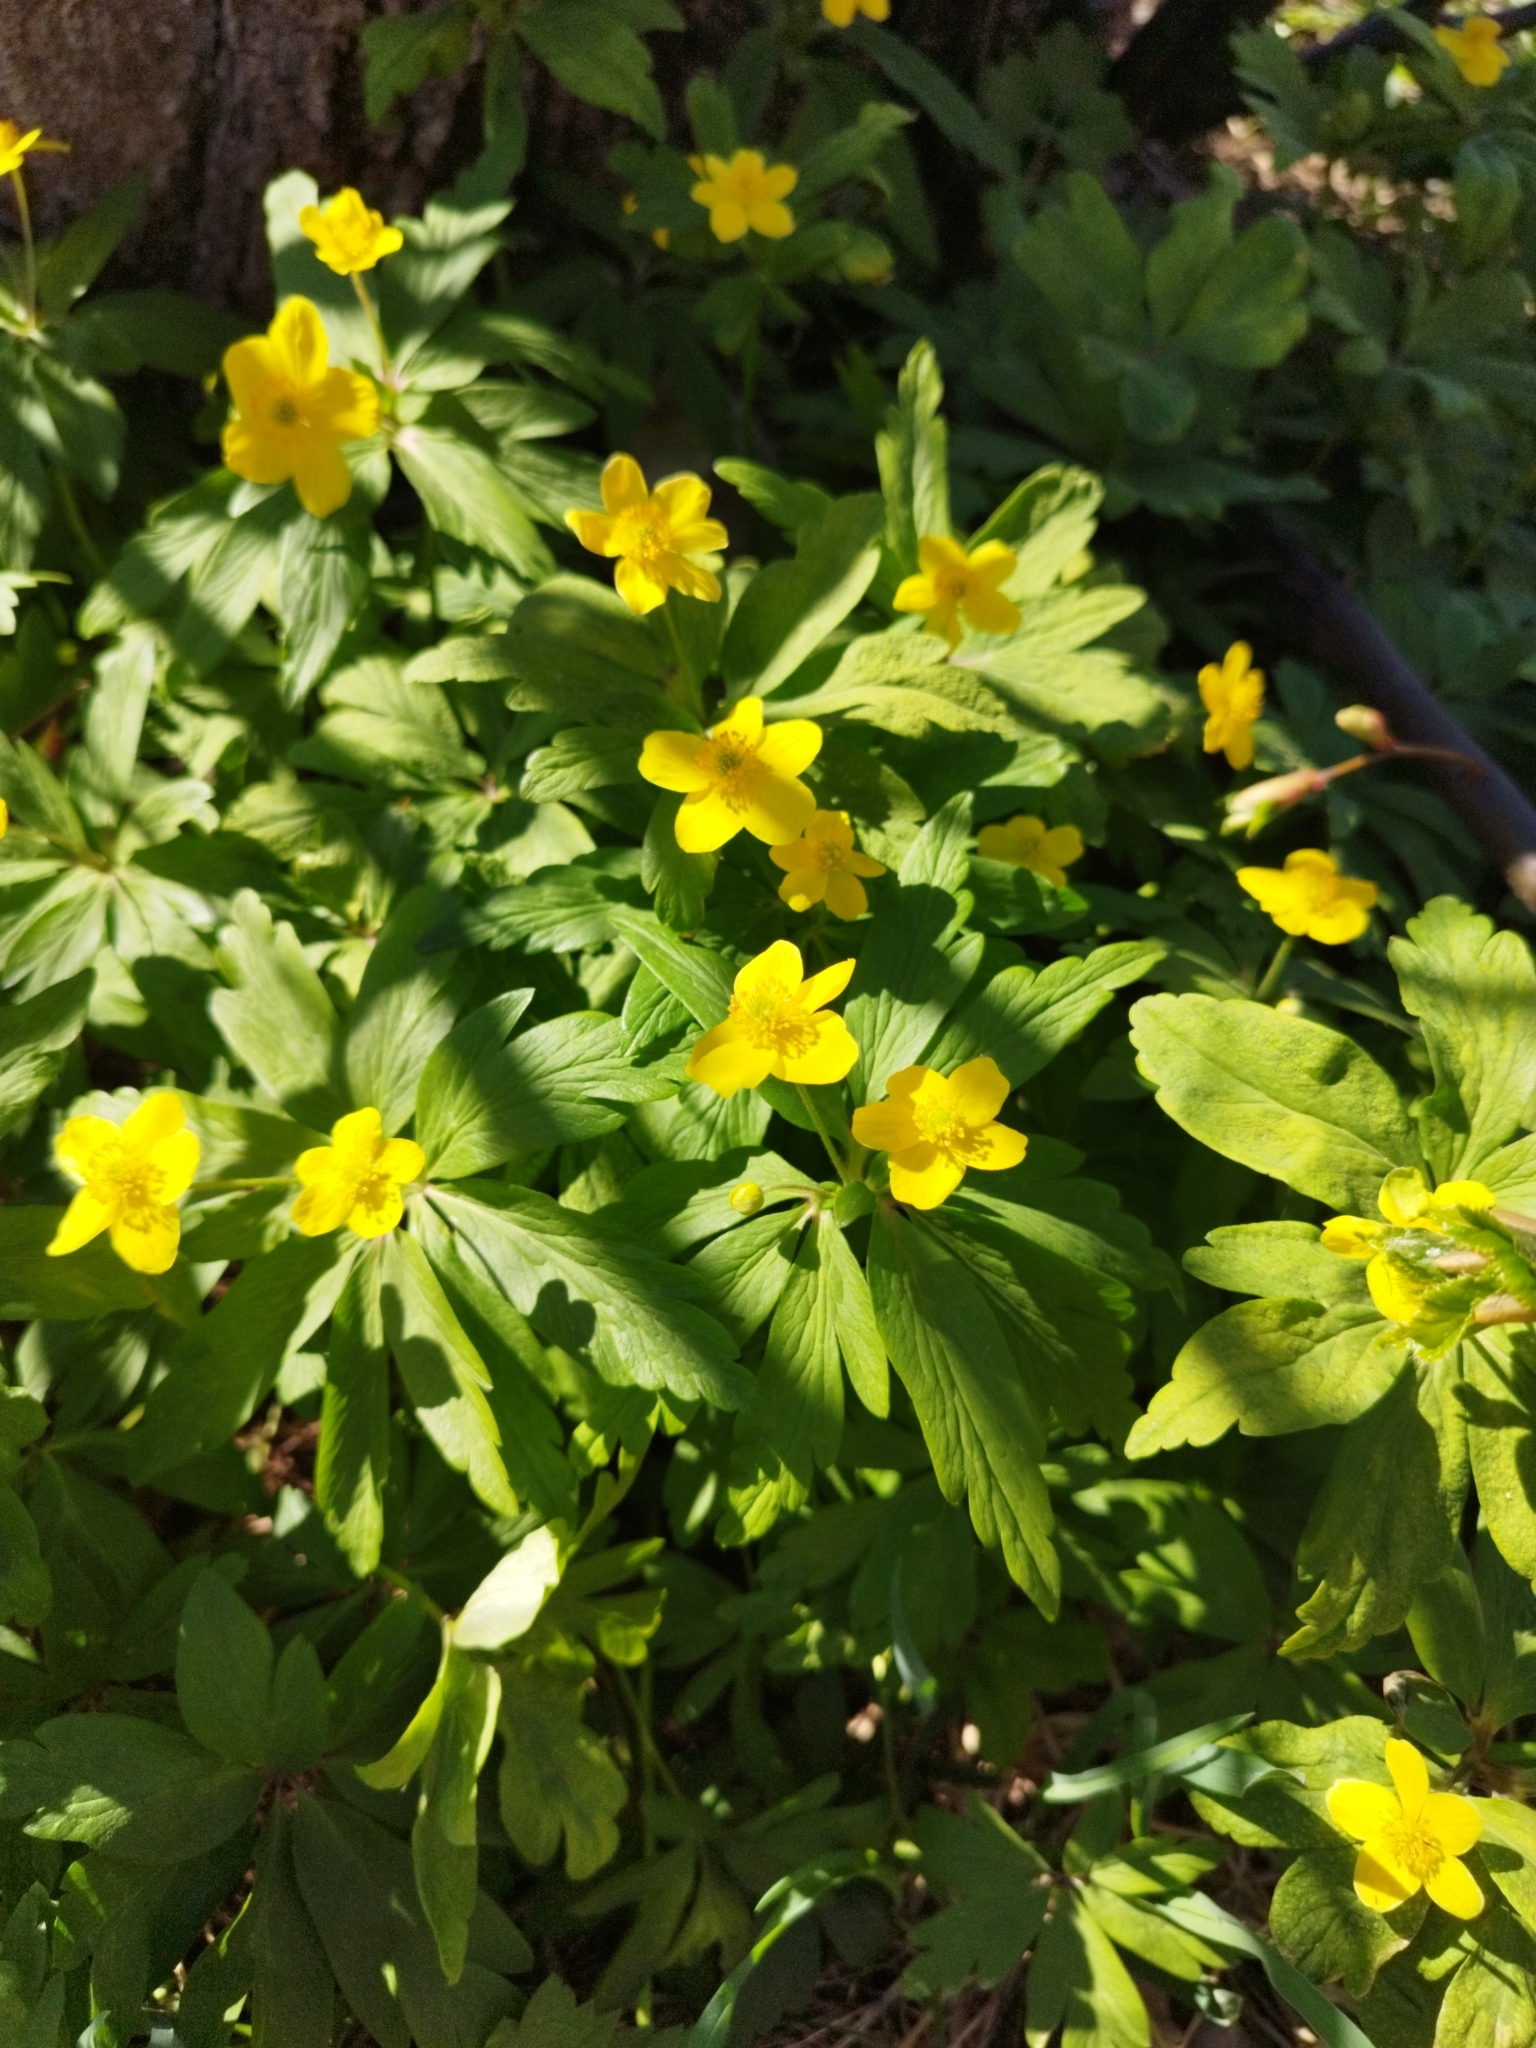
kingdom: Plantae
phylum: Tracheophyta
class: Magnoliopsida
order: Ranunculales
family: Ranunculaceae
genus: Anemone
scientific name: Anemone ranunculoides
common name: Yellow anemone
